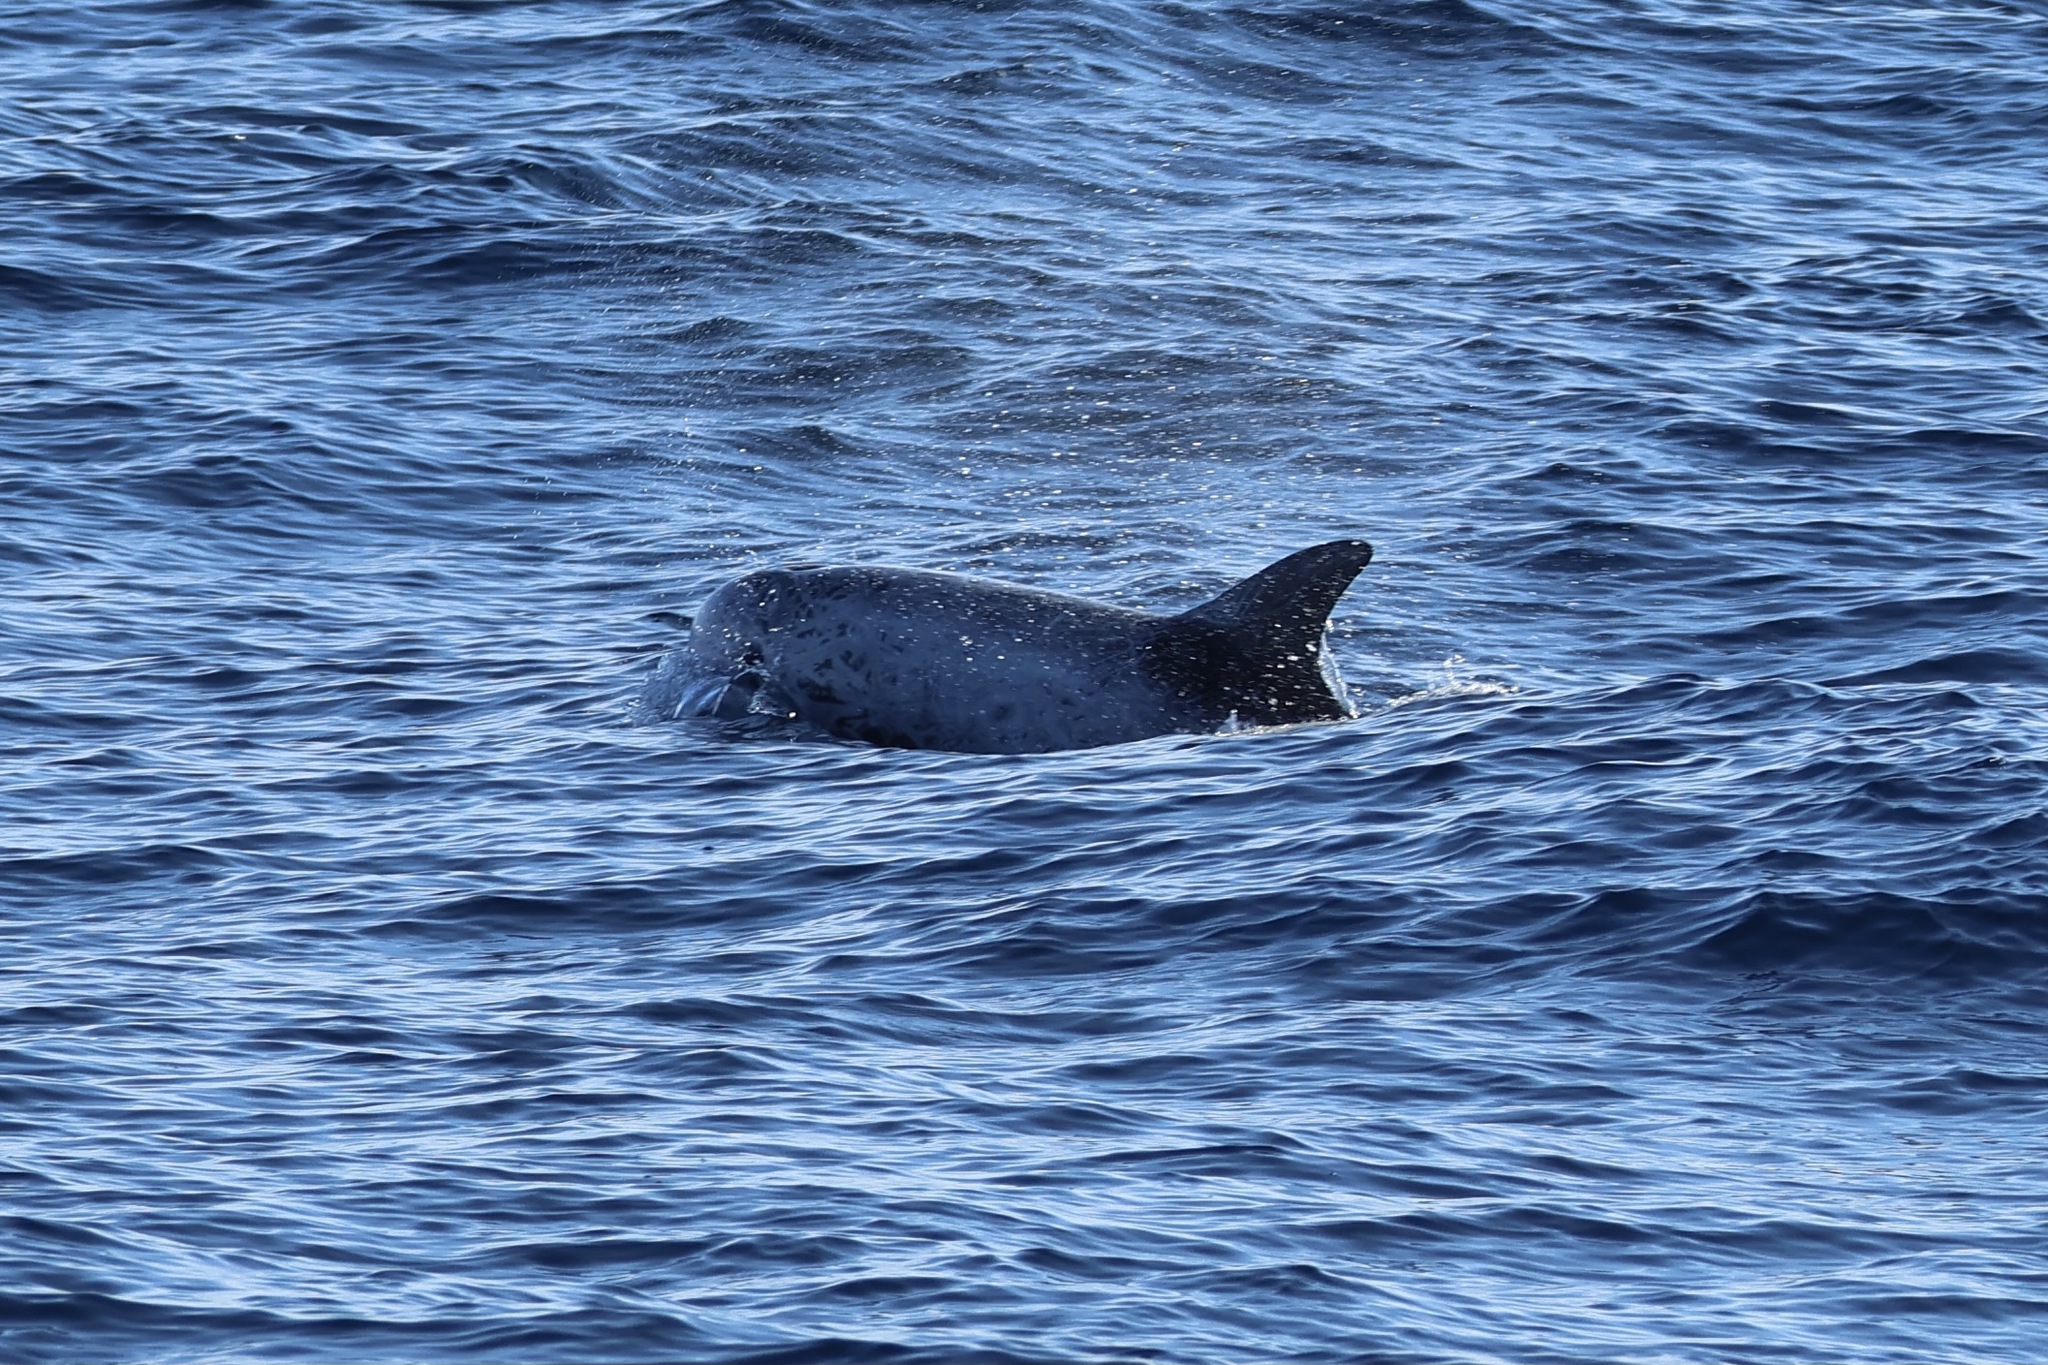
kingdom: Animalia
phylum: Chordata
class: Mammalia
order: Cetacea
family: Delphinidae
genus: Grampus
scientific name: Grampus griseus
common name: Risso's dolphin
